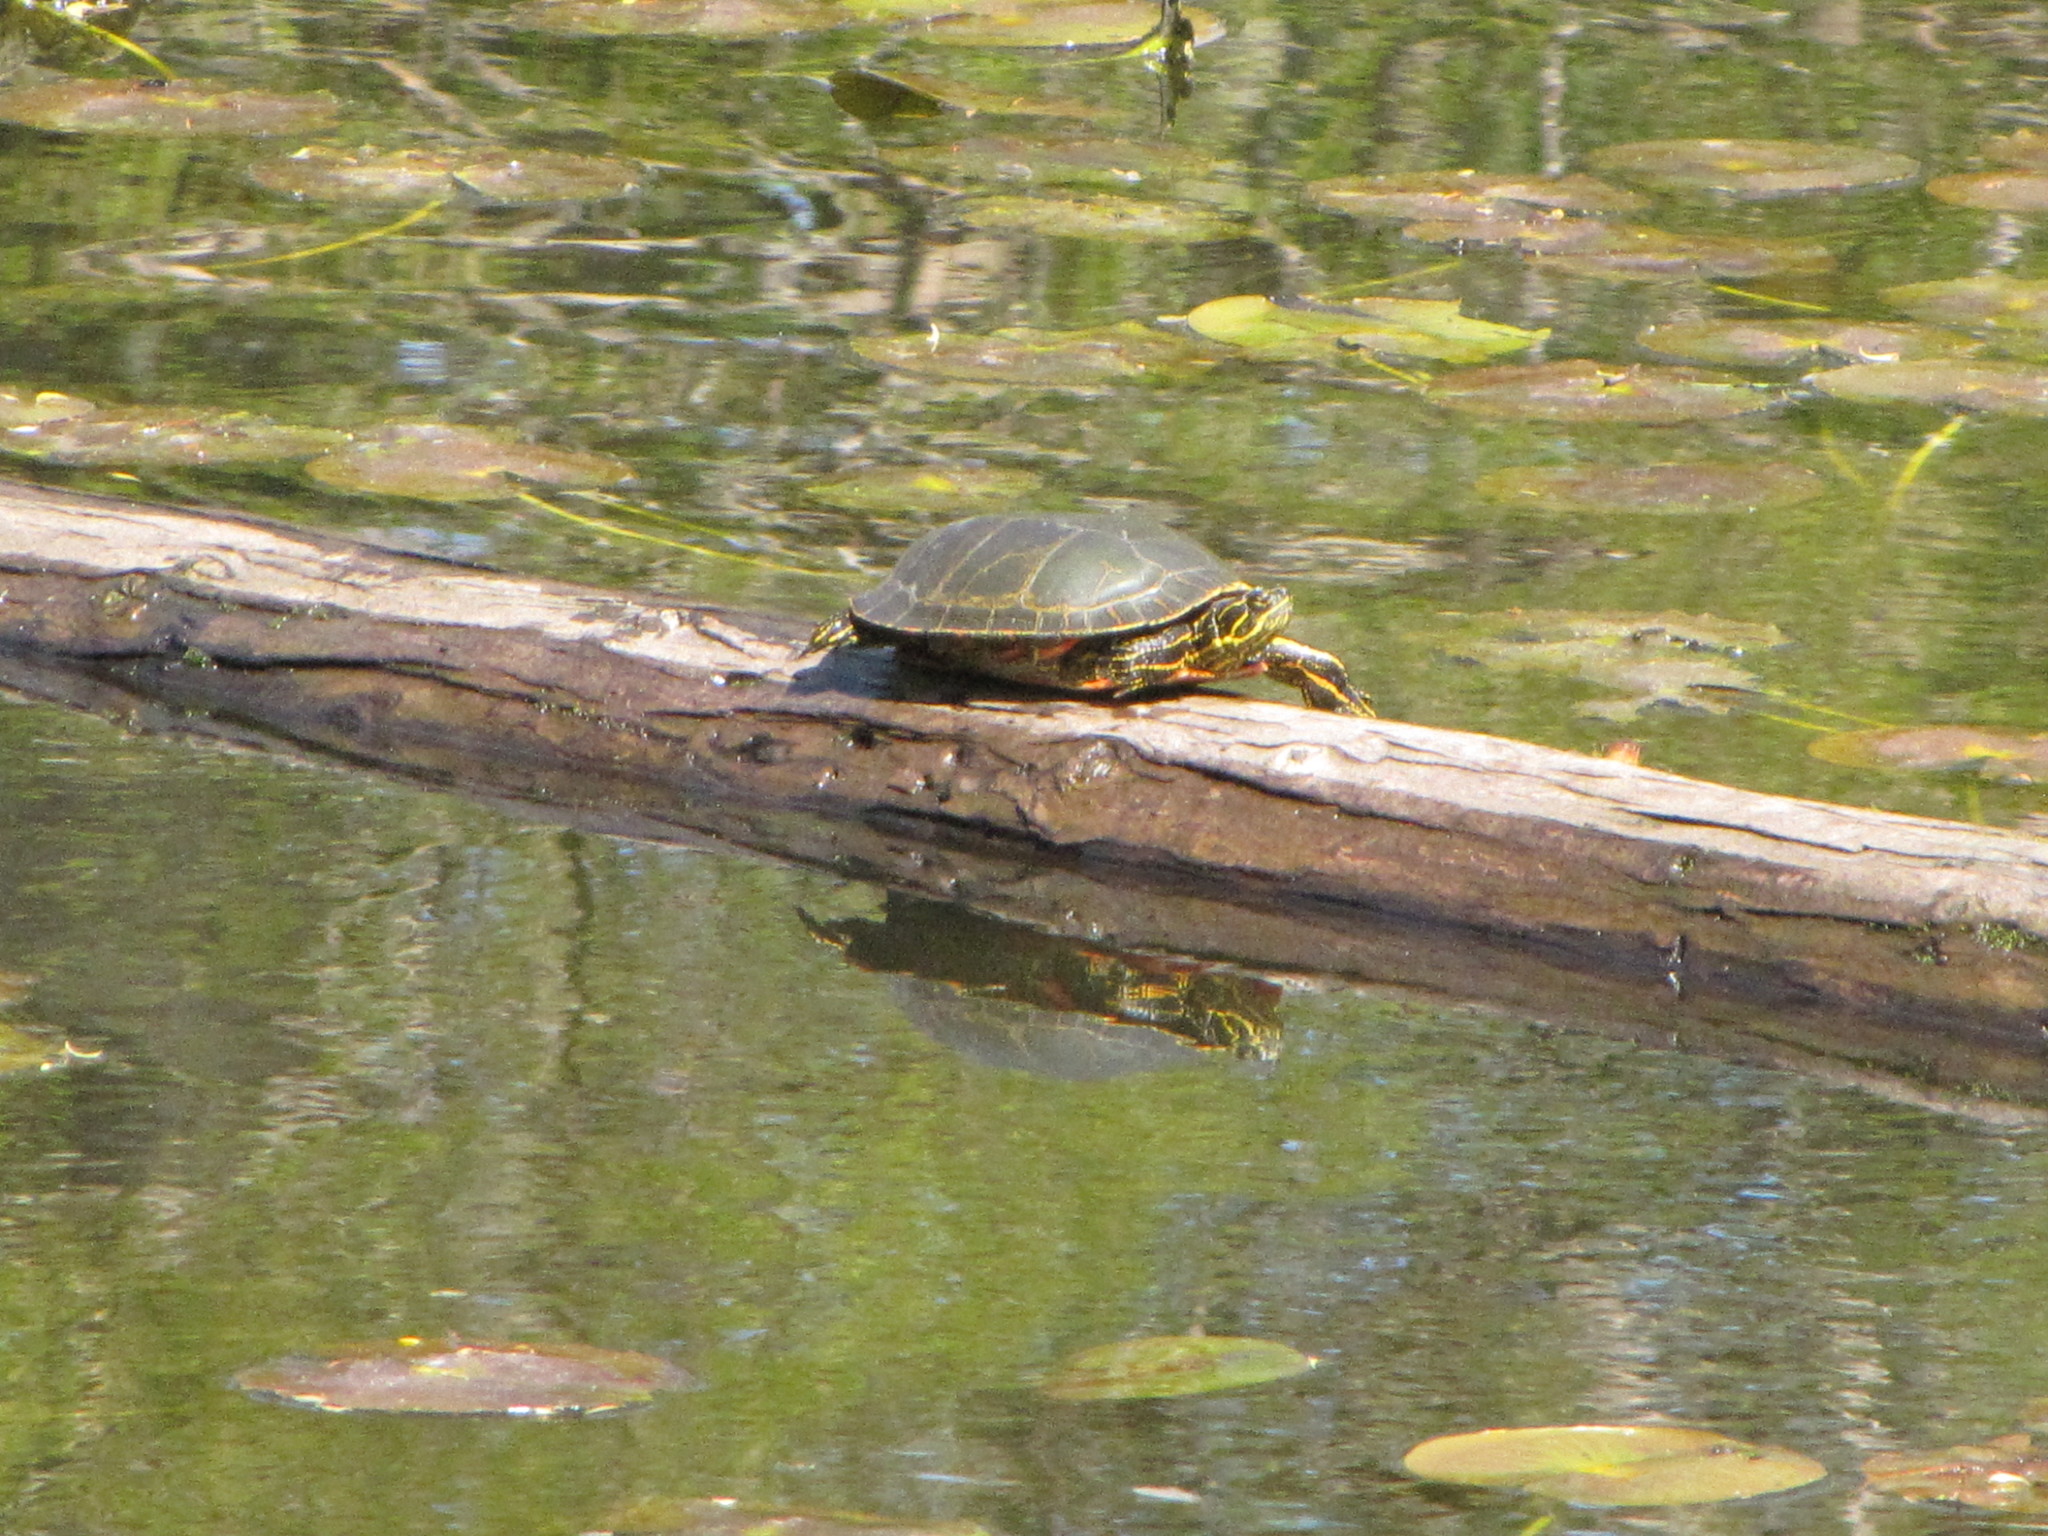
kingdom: Animalia
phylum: Chordata
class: Testudines
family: Emydidae
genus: Chrysemys
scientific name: Chrysemys picta
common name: Painted turtle
